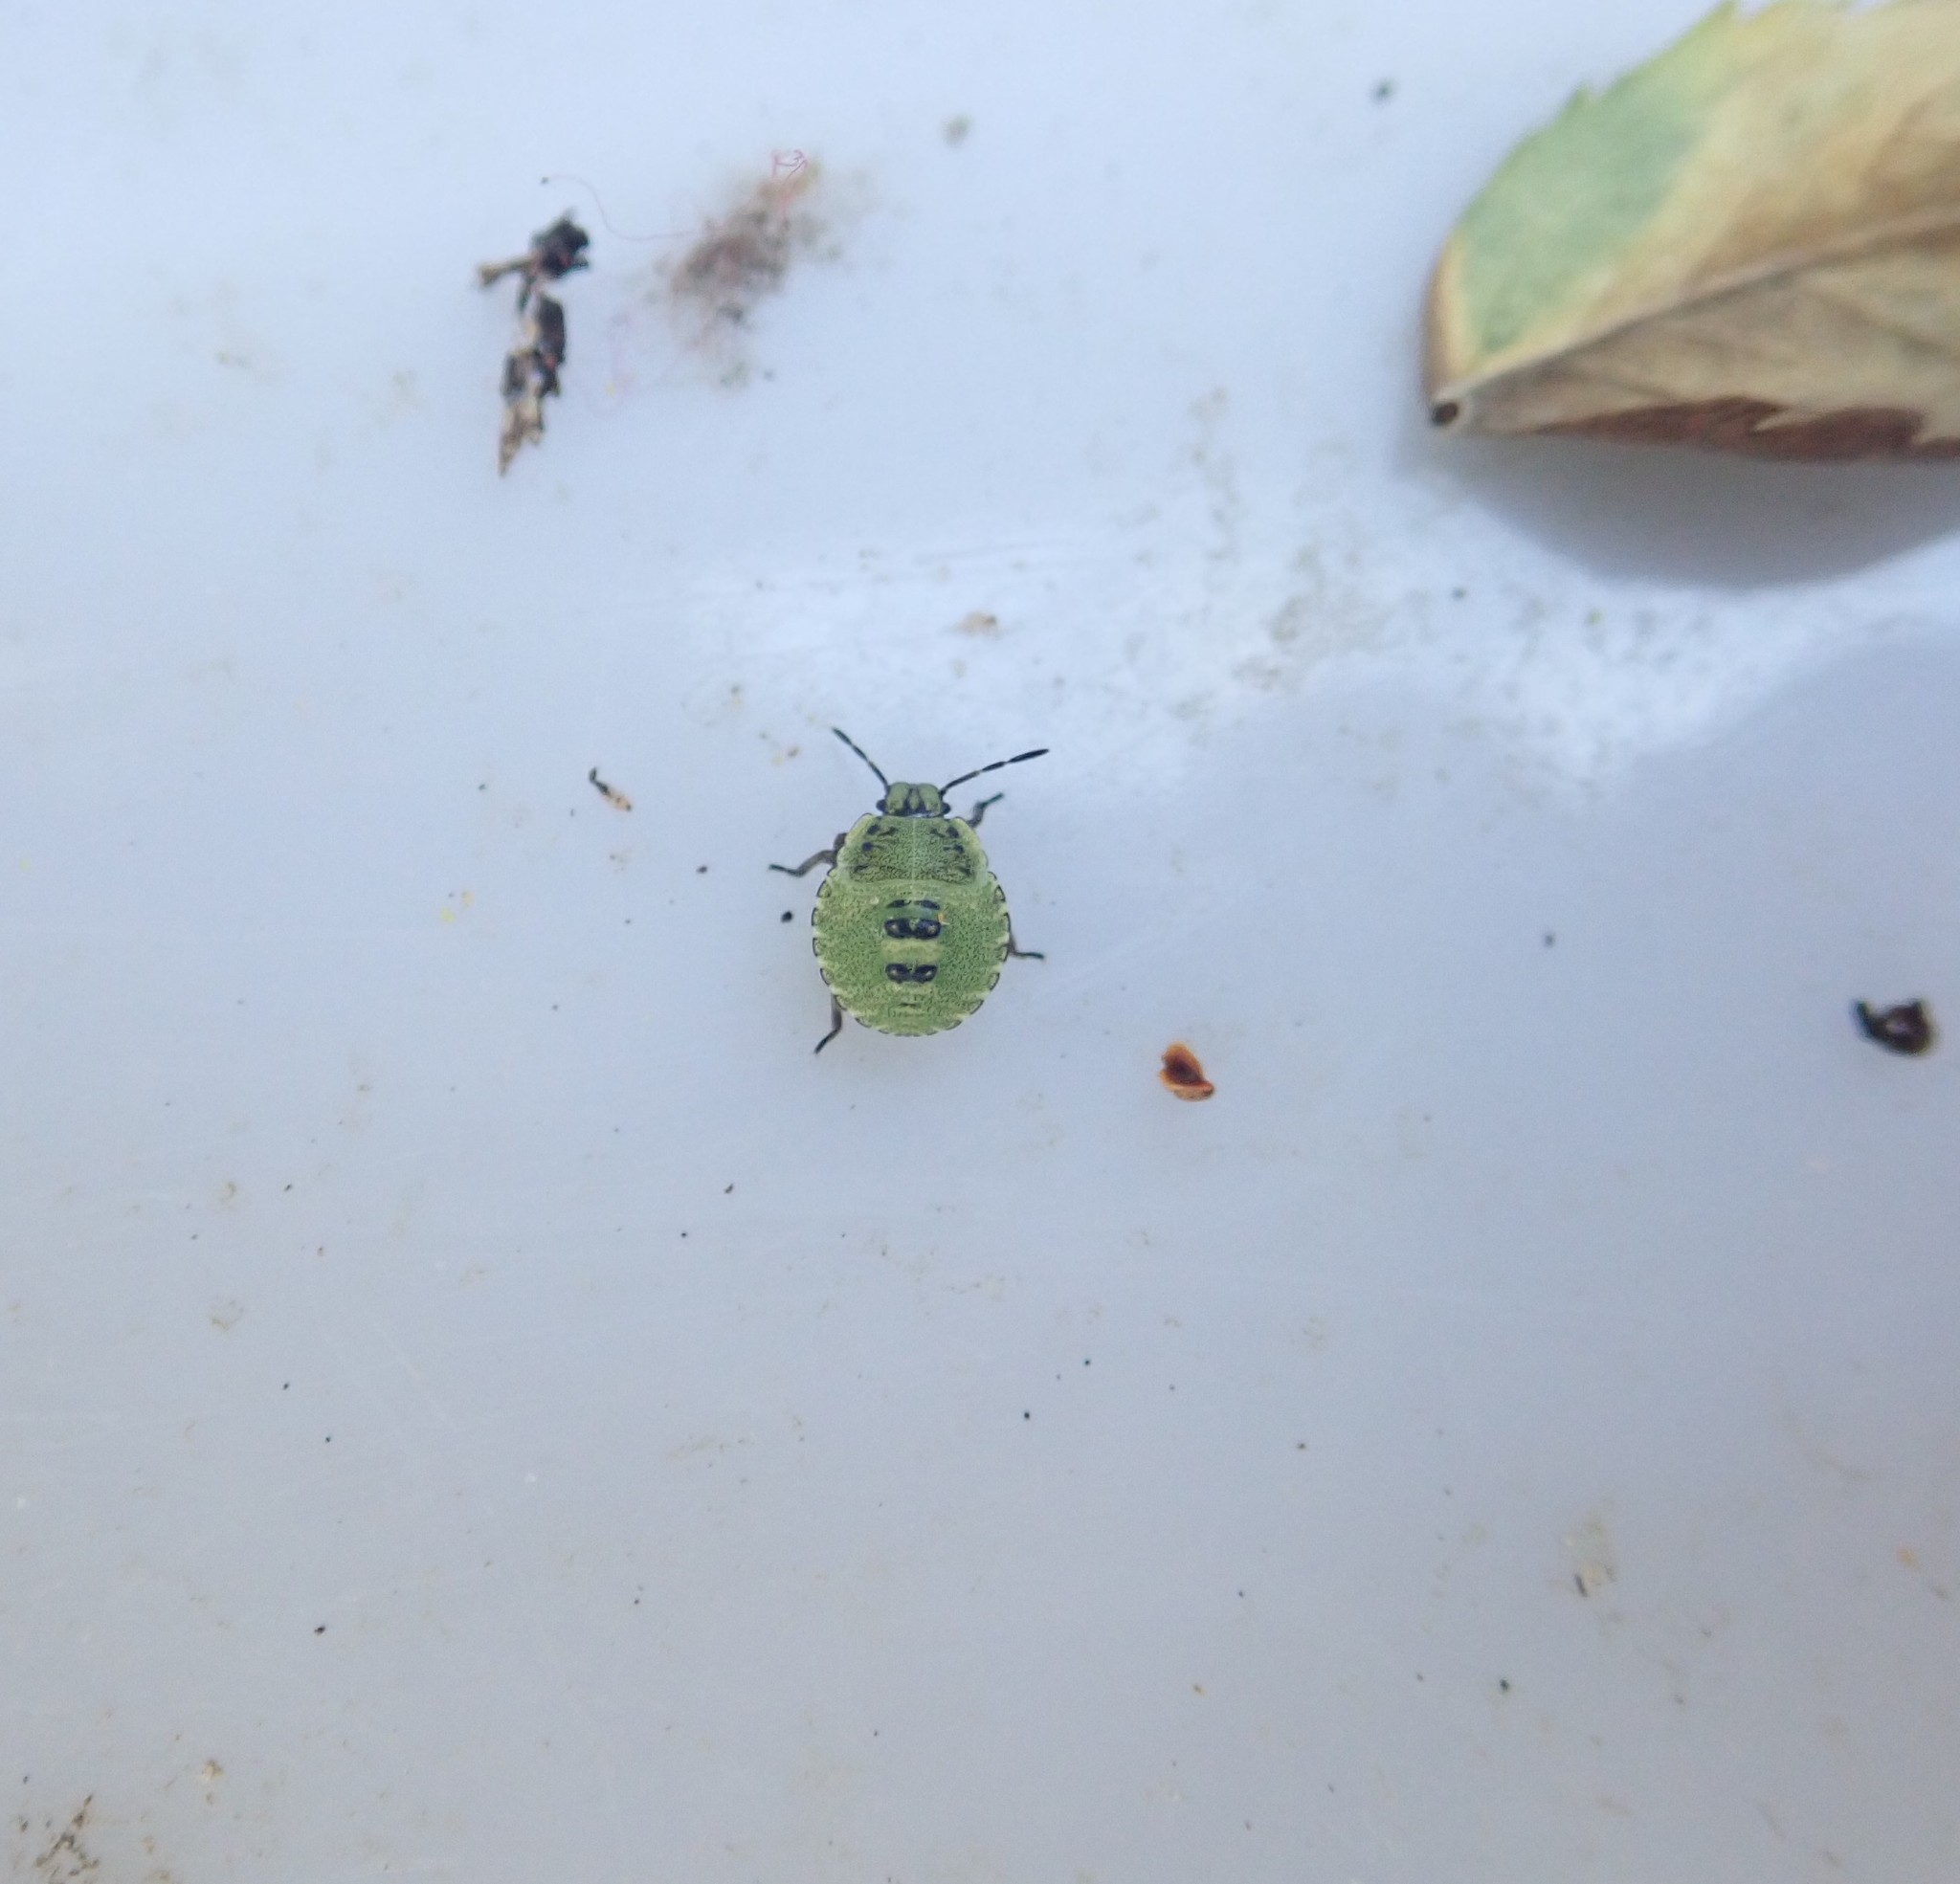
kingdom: Animalia
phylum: Arthropoda
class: Insecta
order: Hemiptera
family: Pentatomidae
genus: Palomena
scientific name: Palomena prasina
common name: Green shieldbug
